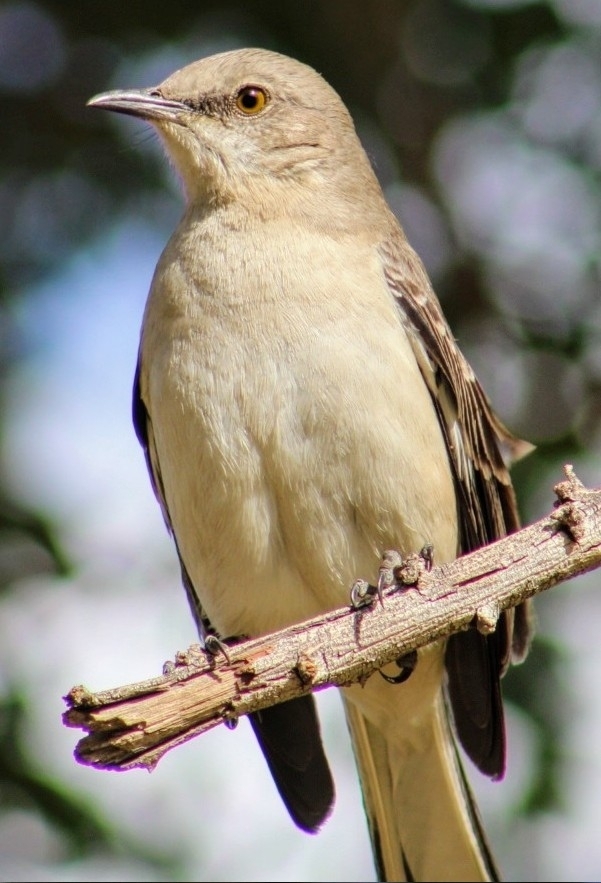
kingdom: Animalia
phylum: Chordata
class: Aves
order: Passeriformes
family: Mimidae
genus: Mimus
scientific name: Mimus polyglottos
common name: Northern mockingbird
